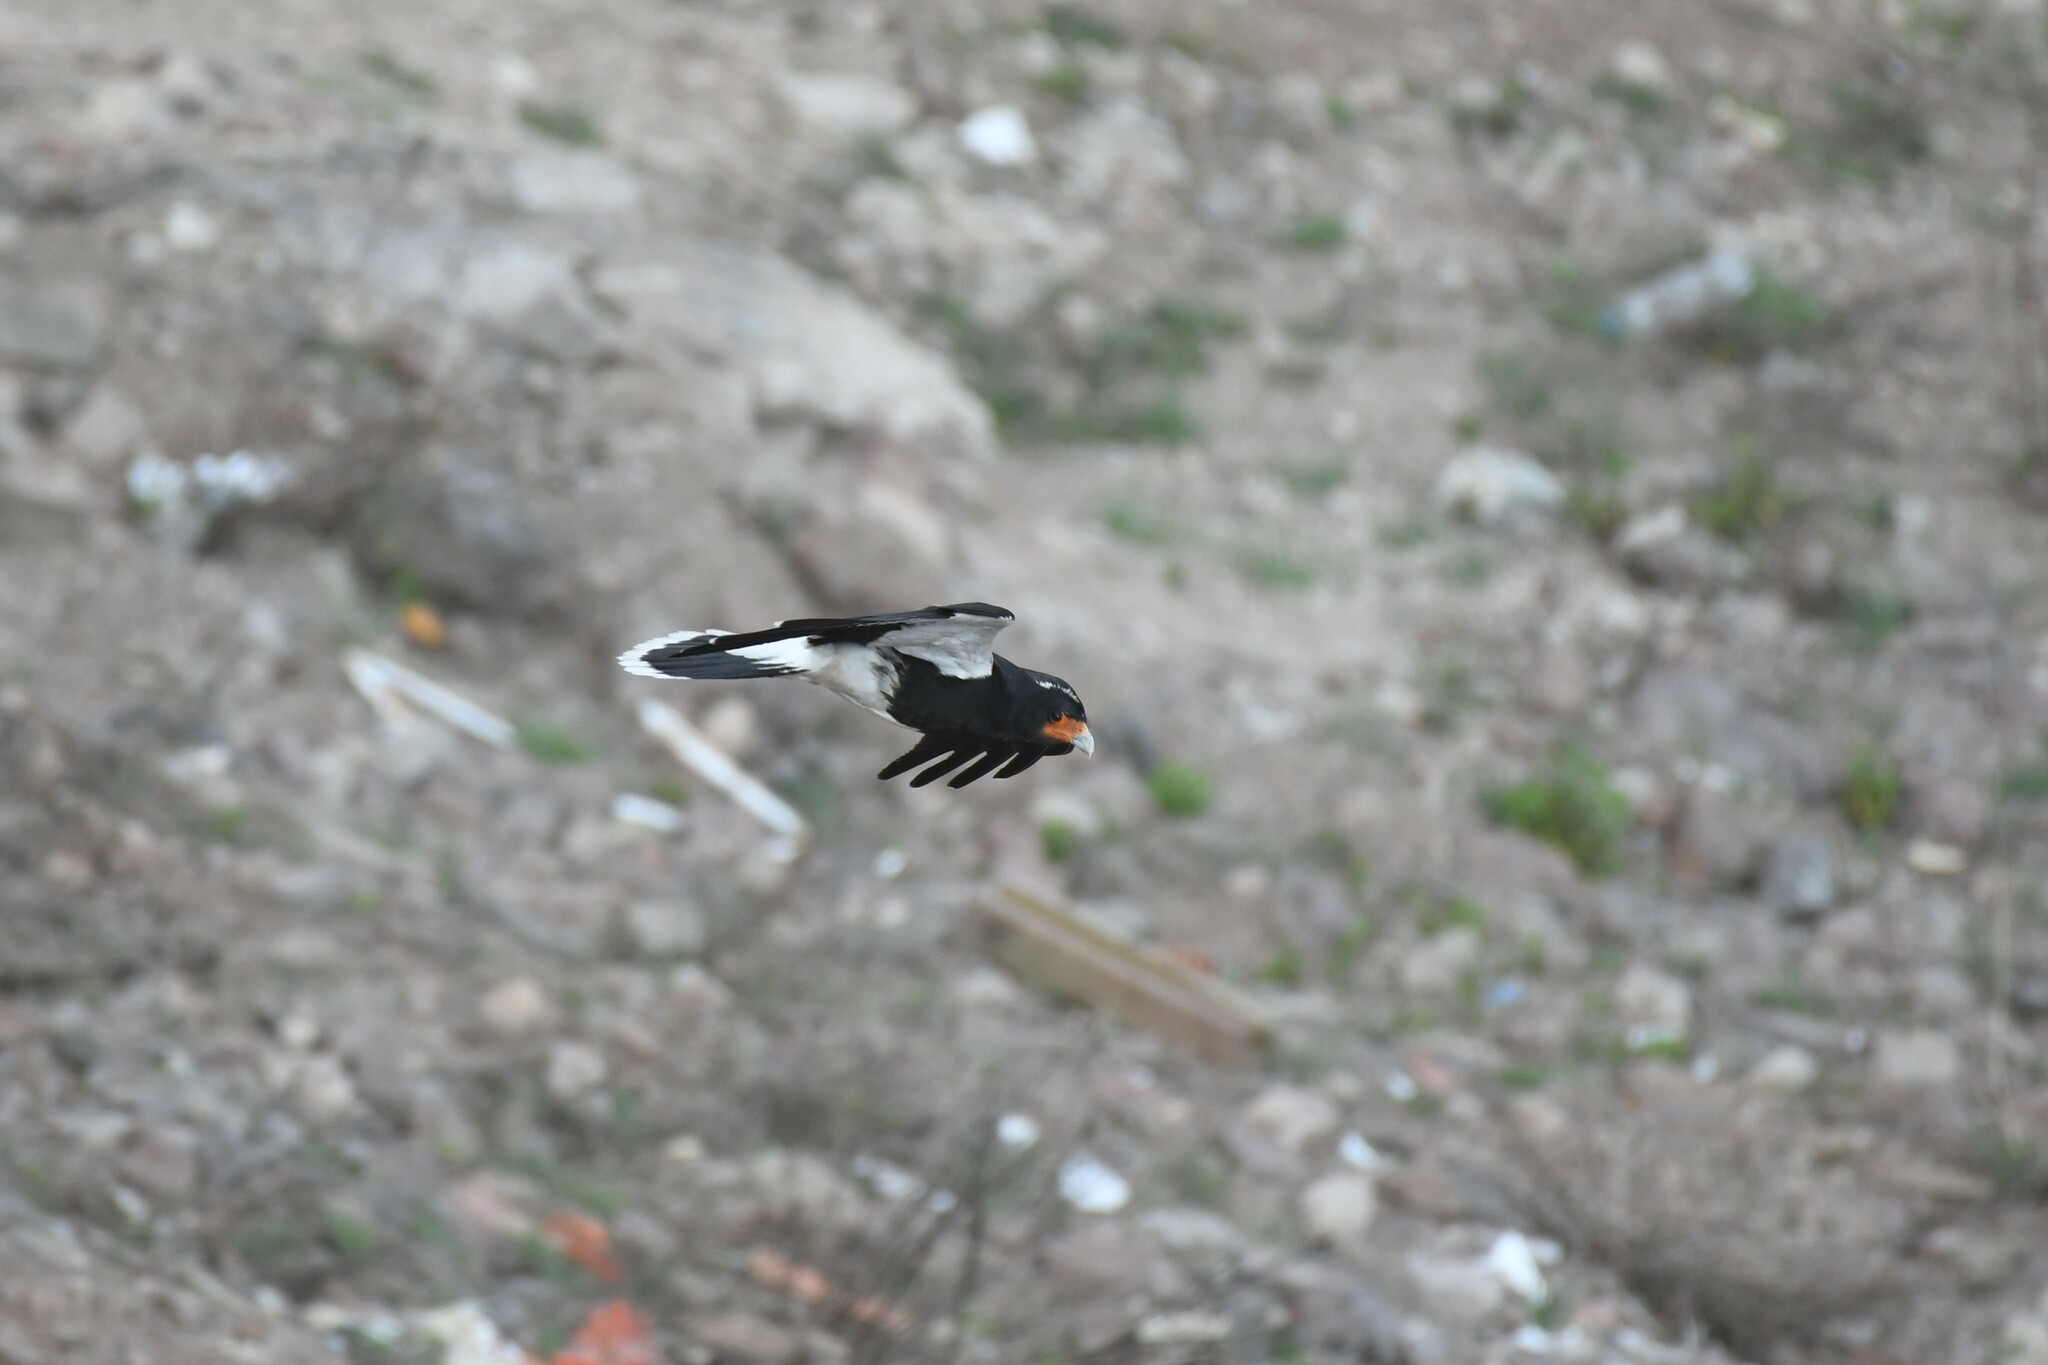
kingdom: Animalia
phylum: Chordata
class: Aves
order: Falconiformes
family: Falconidae
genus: Daptrius
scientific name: Daptrius
